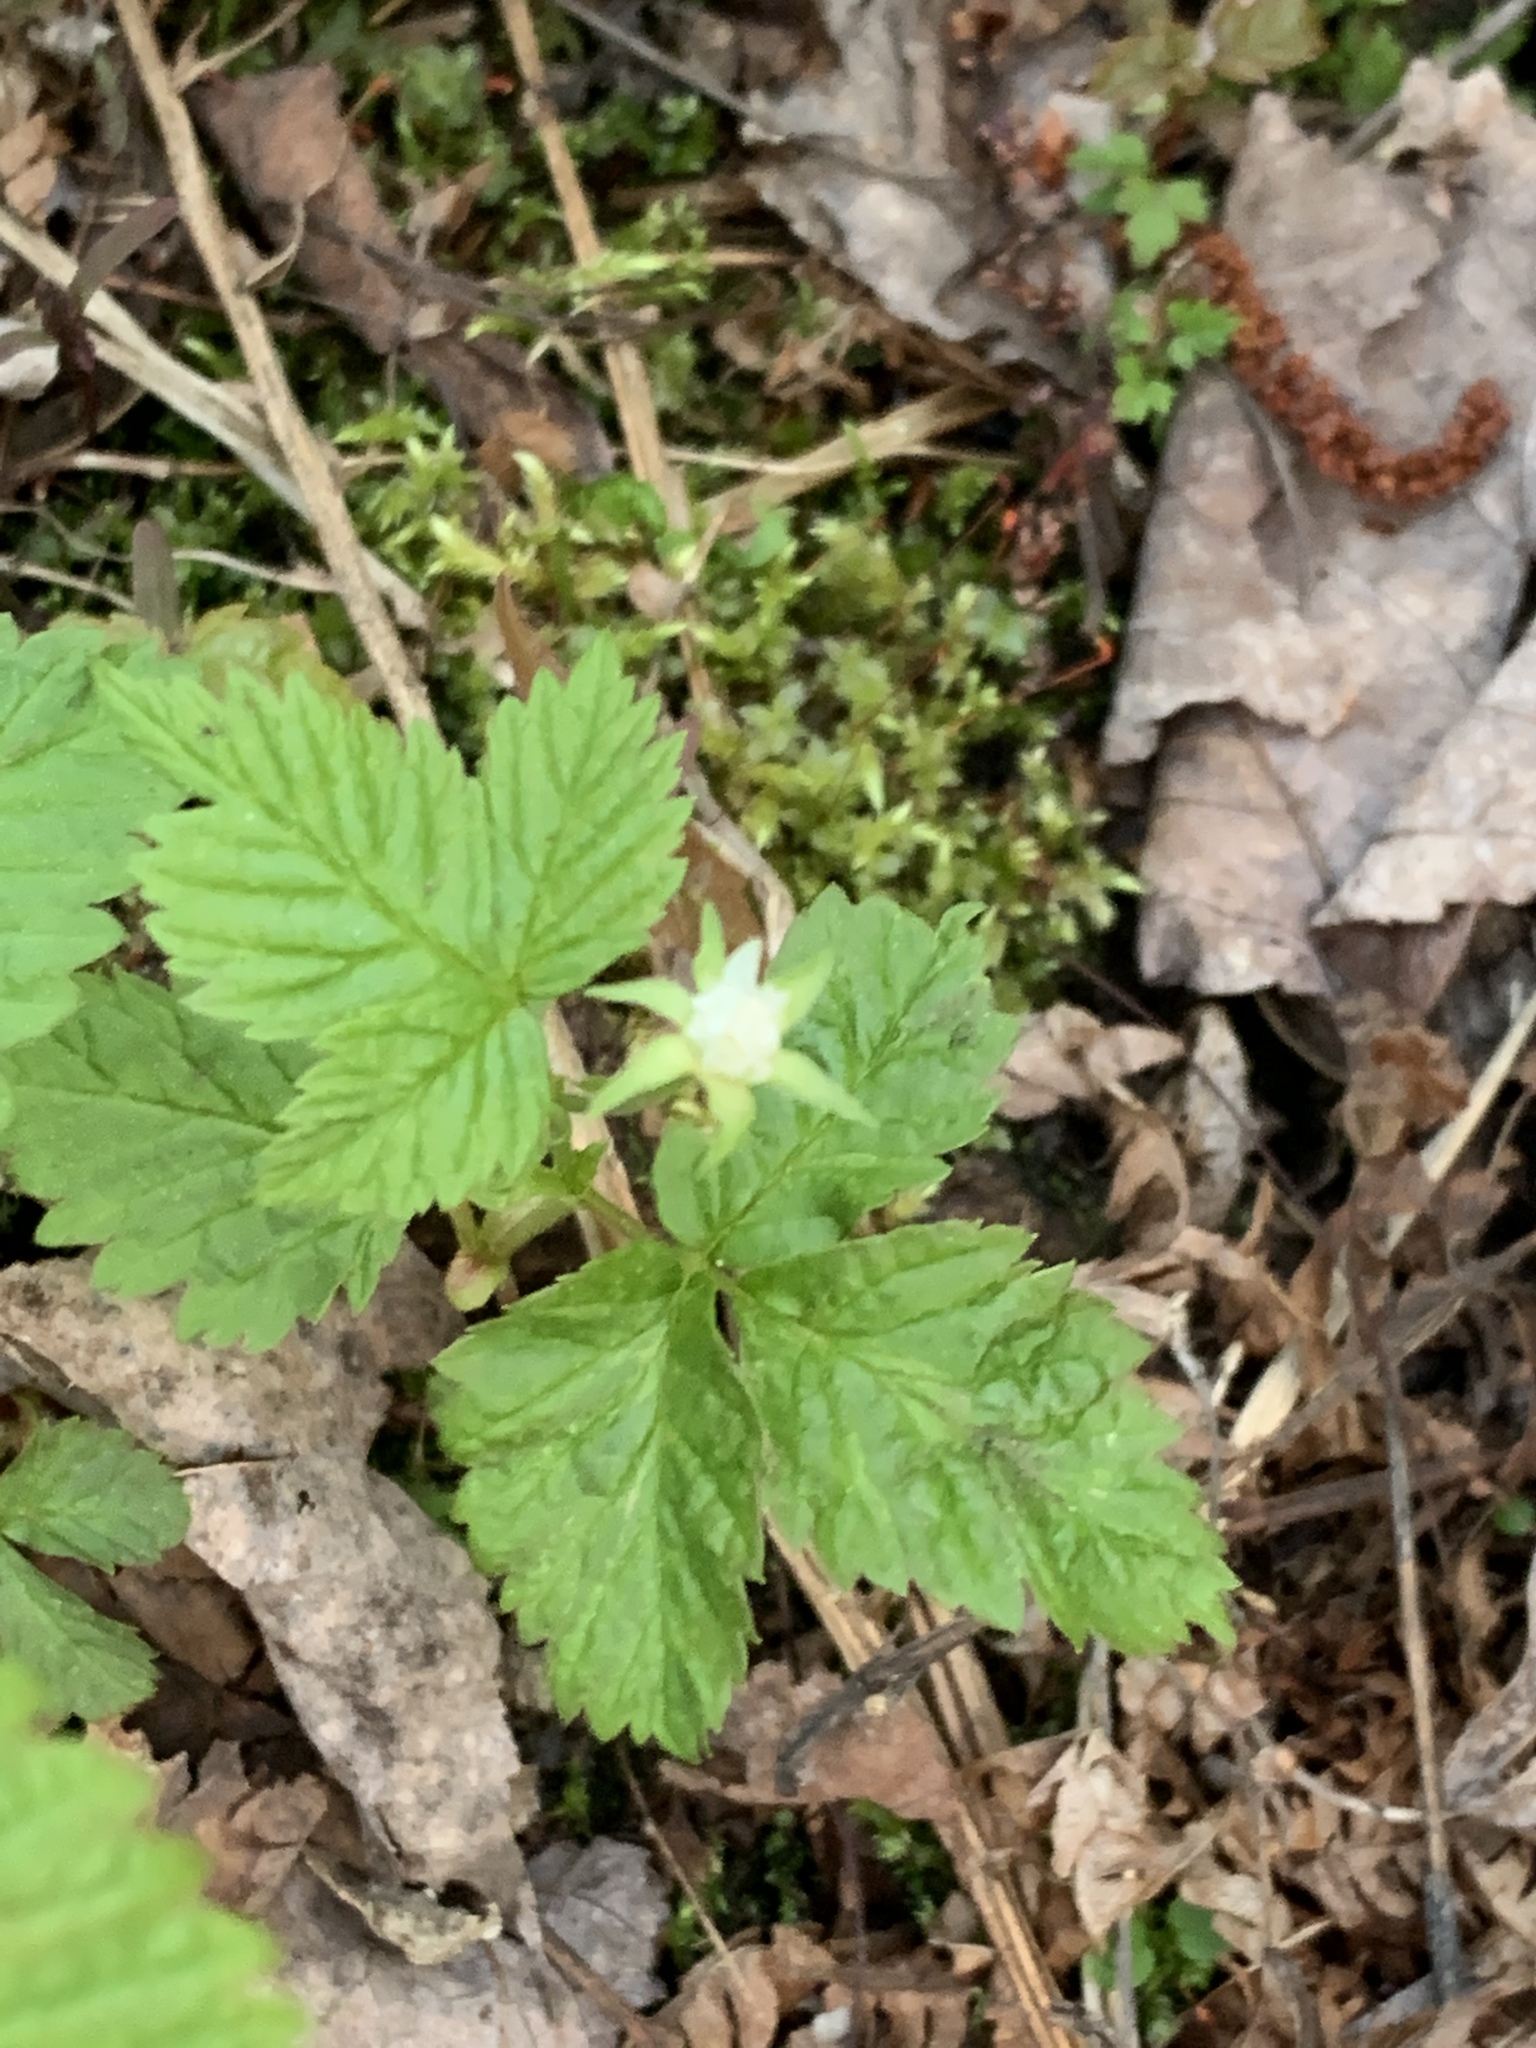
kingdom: Plantae
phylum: Tracheophyta
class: Magnoliopsida
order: Rosales
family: Rosaceae
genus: Rubus
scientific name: Rubus pubescens
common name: Dwarf raspberry
